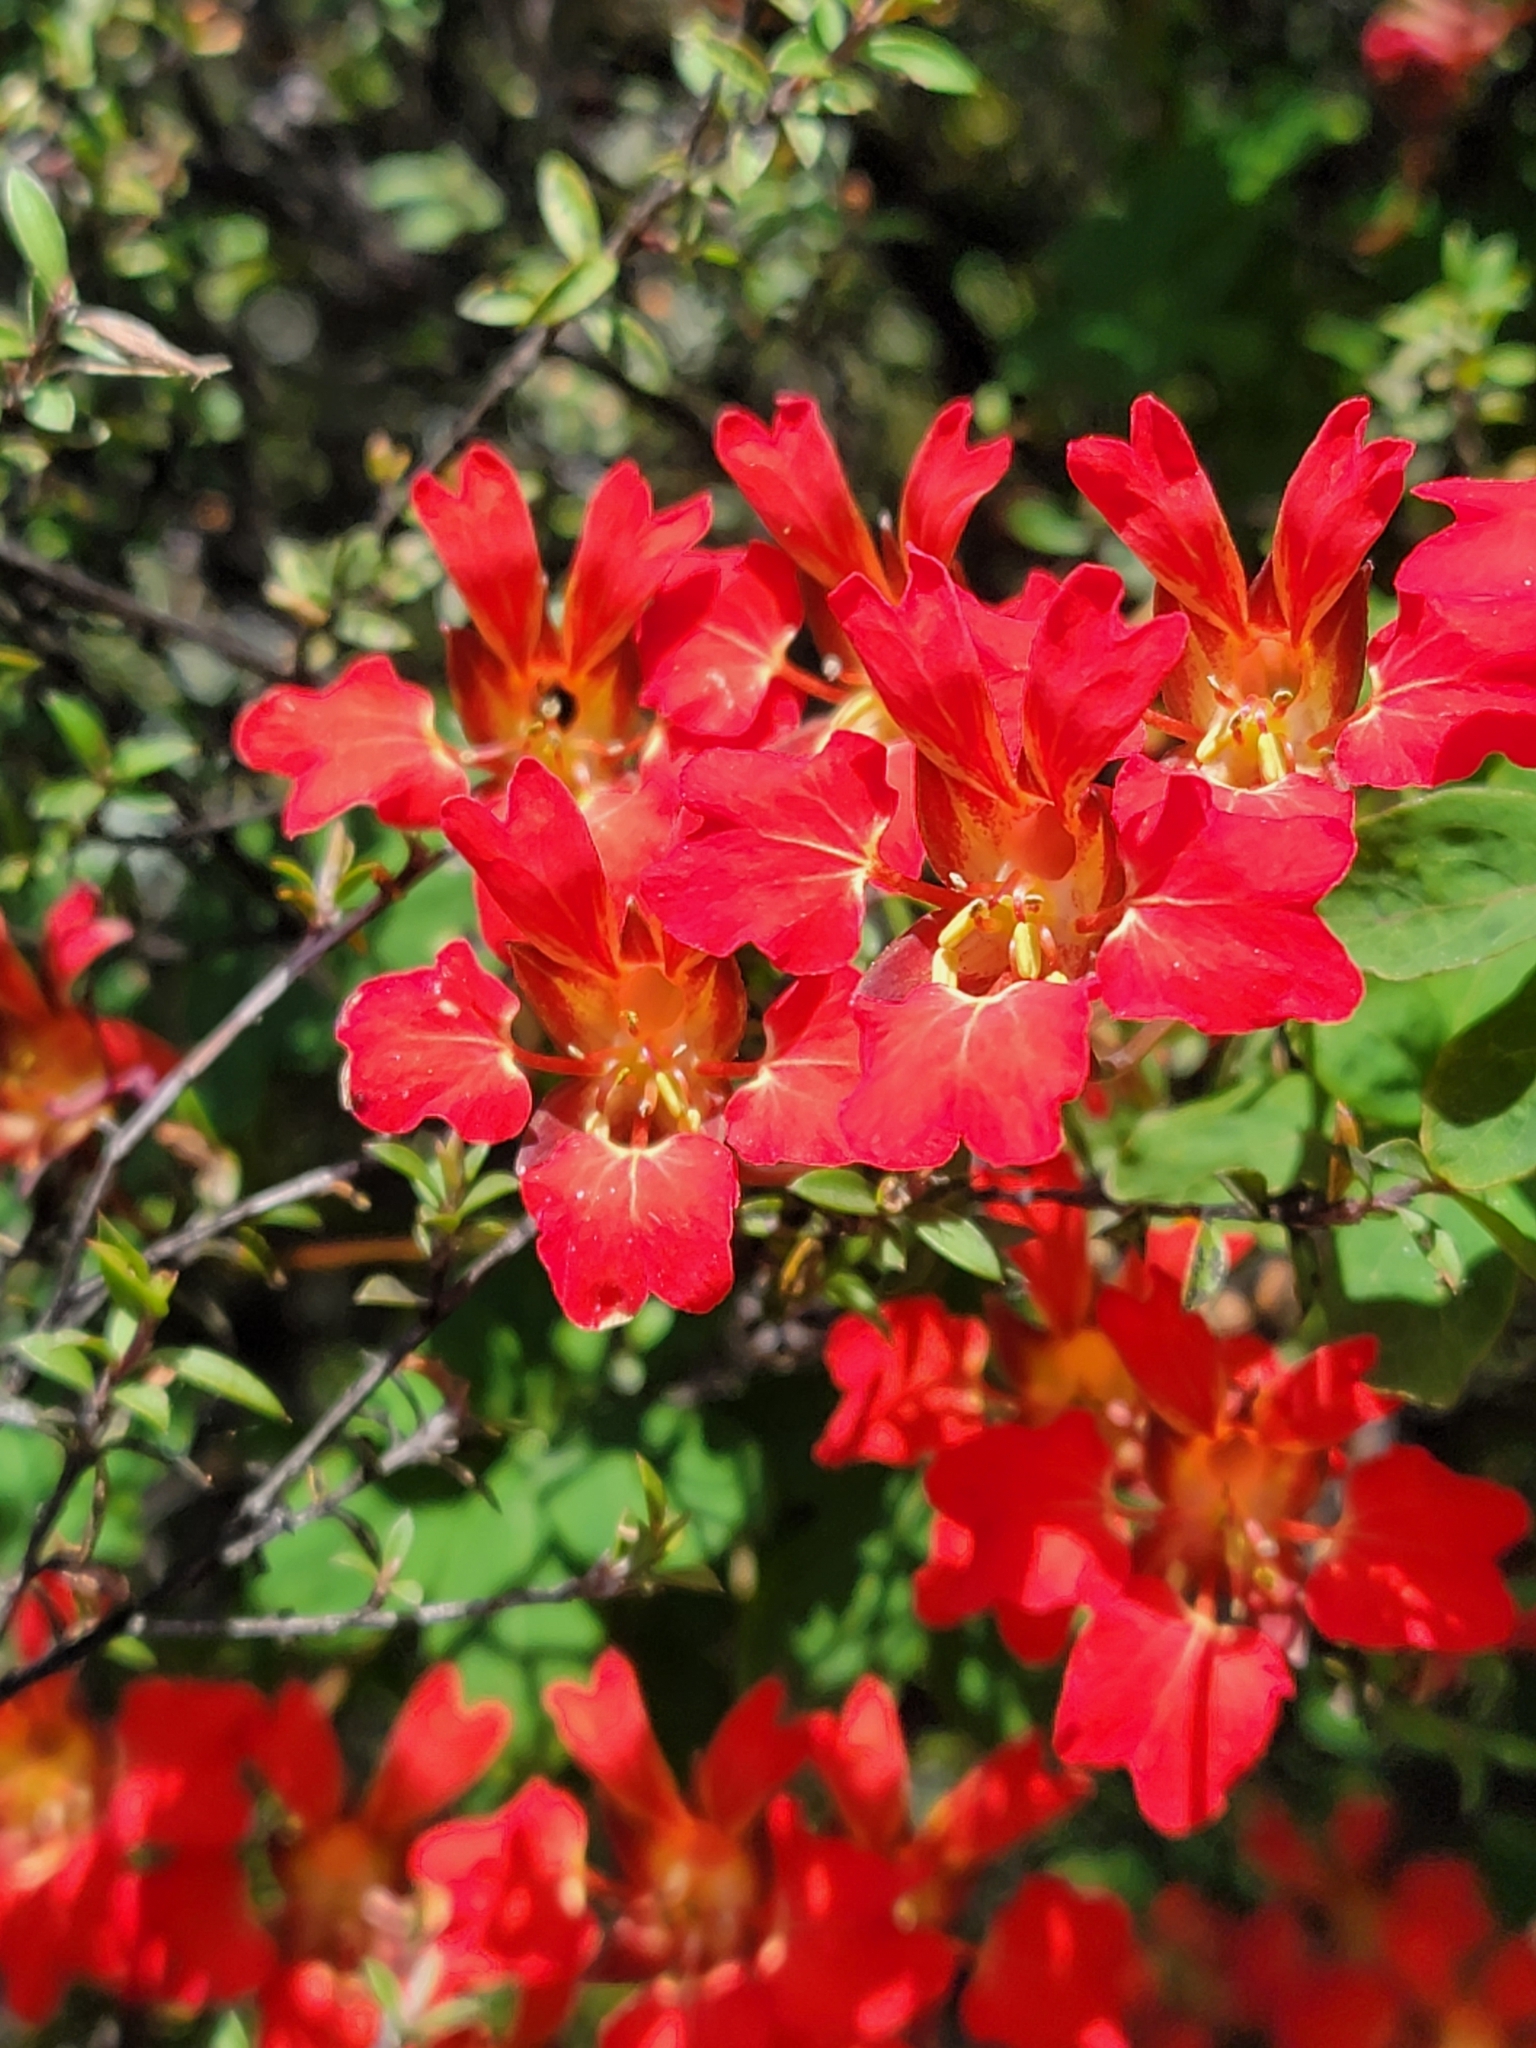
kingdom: Plantae
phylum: Tracheophyta
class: Magnoliopsida
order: Brassicales
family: Tropaeolaceae
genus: Tropaeolum
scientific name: Tropaeolum speciosum
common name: Flame nasturtium
